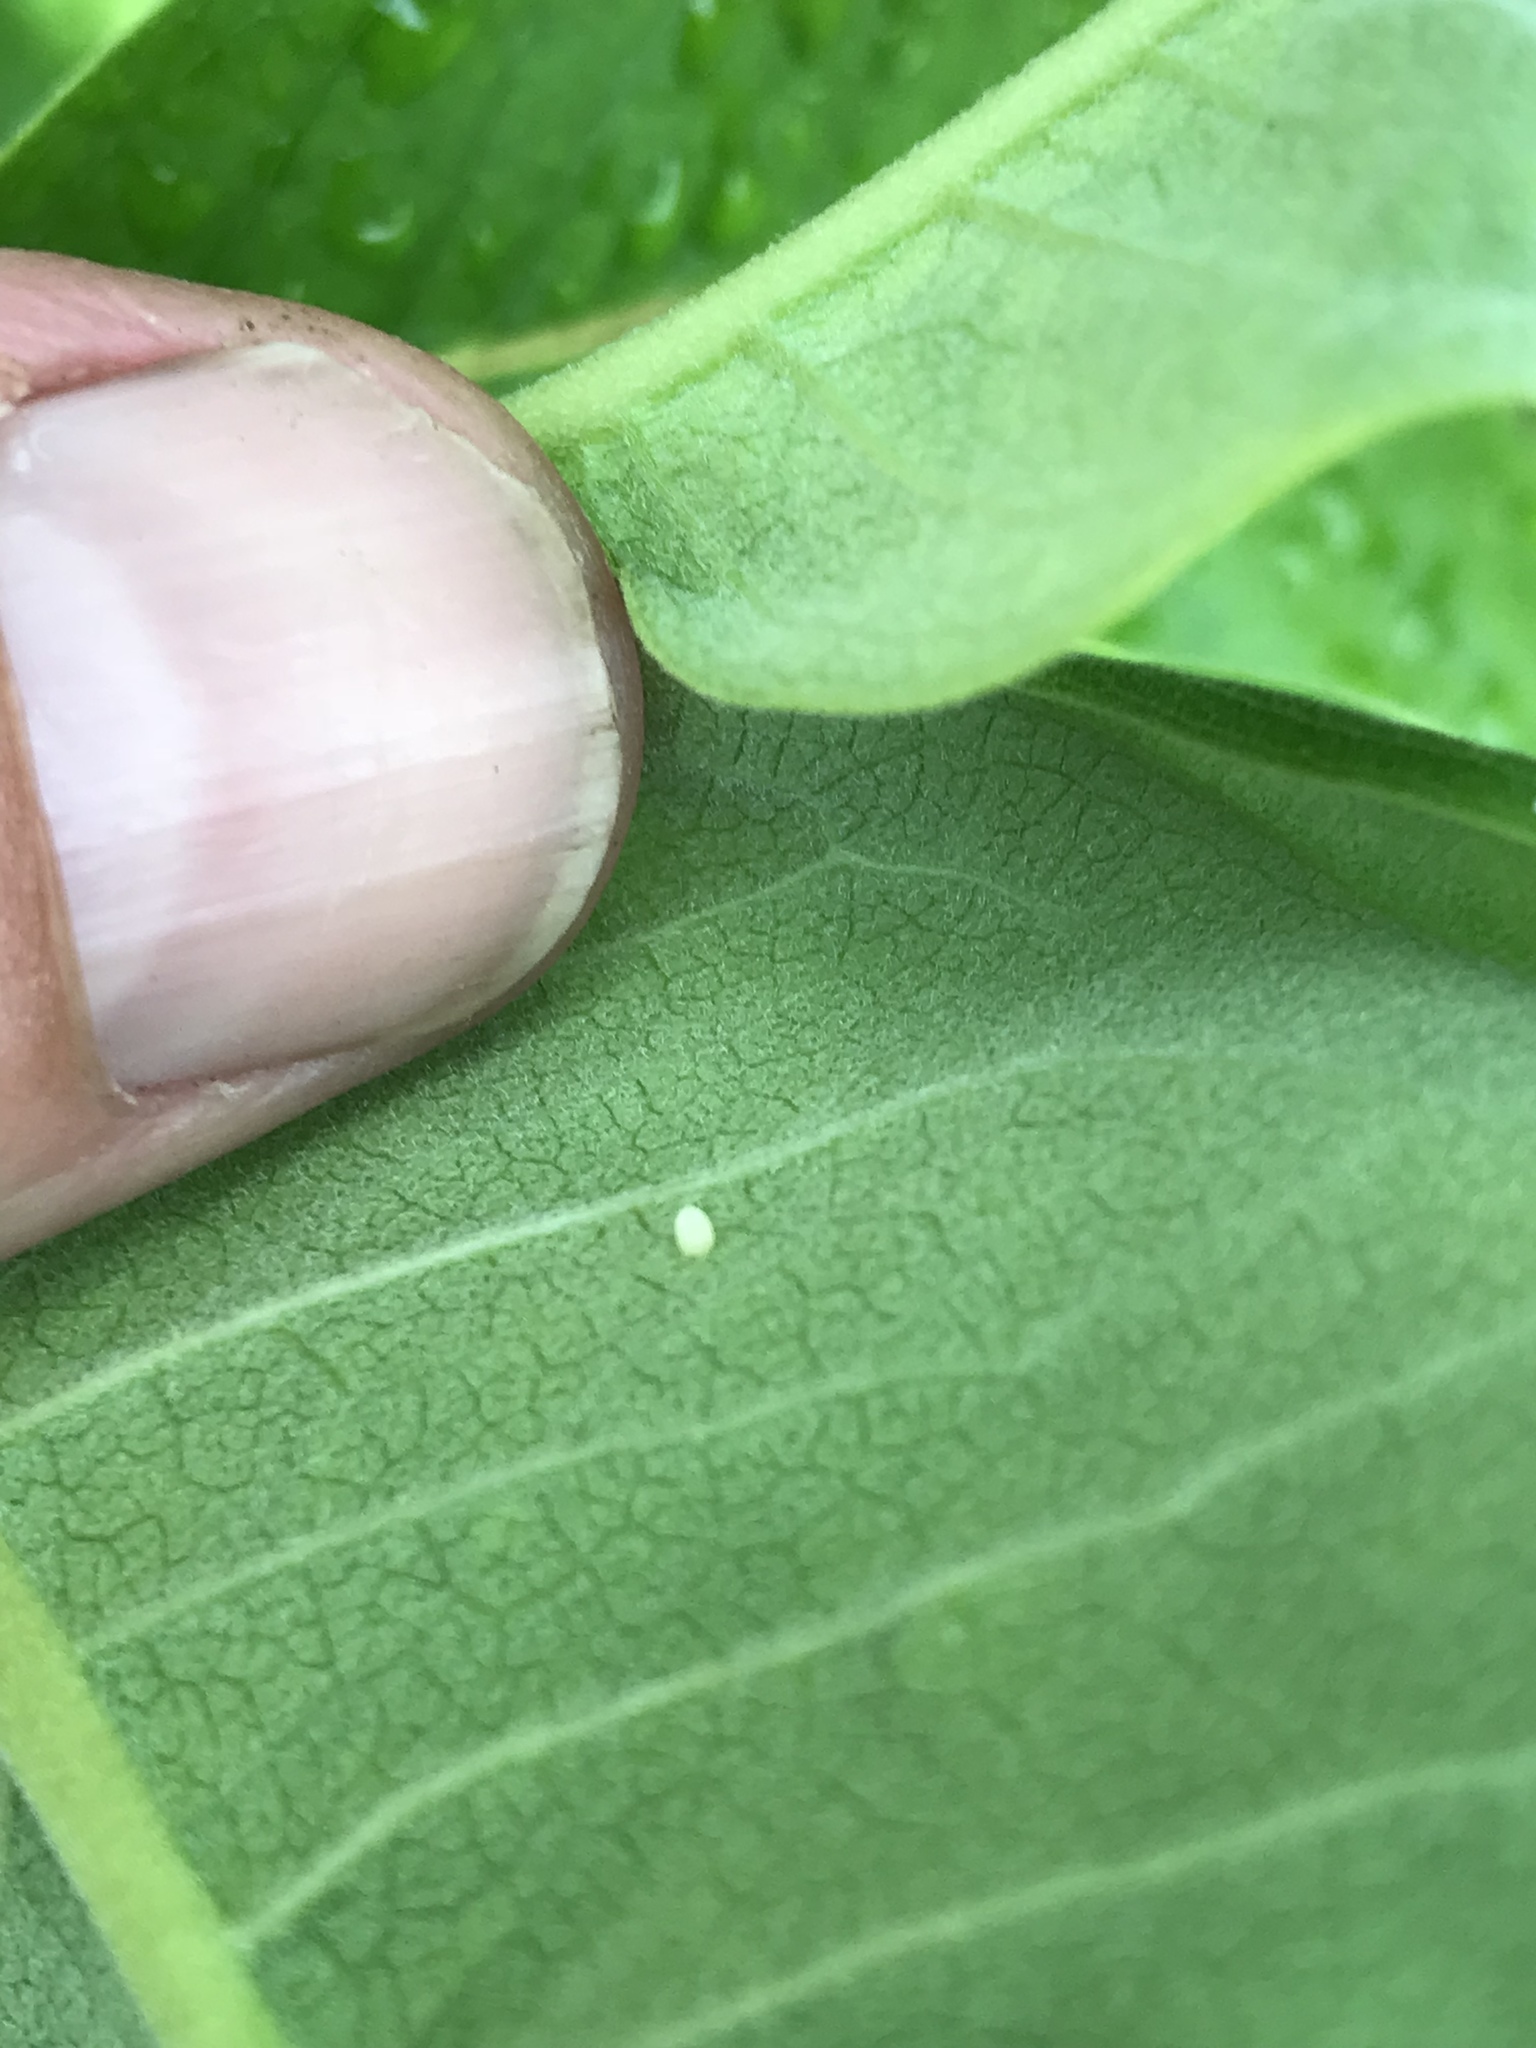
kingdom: Animalia
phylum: Arthropoda
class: Insecta
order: Lepidoptera
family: Nymphalidae
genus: Danaus
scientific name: Danaus plexippus
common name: Monarch
